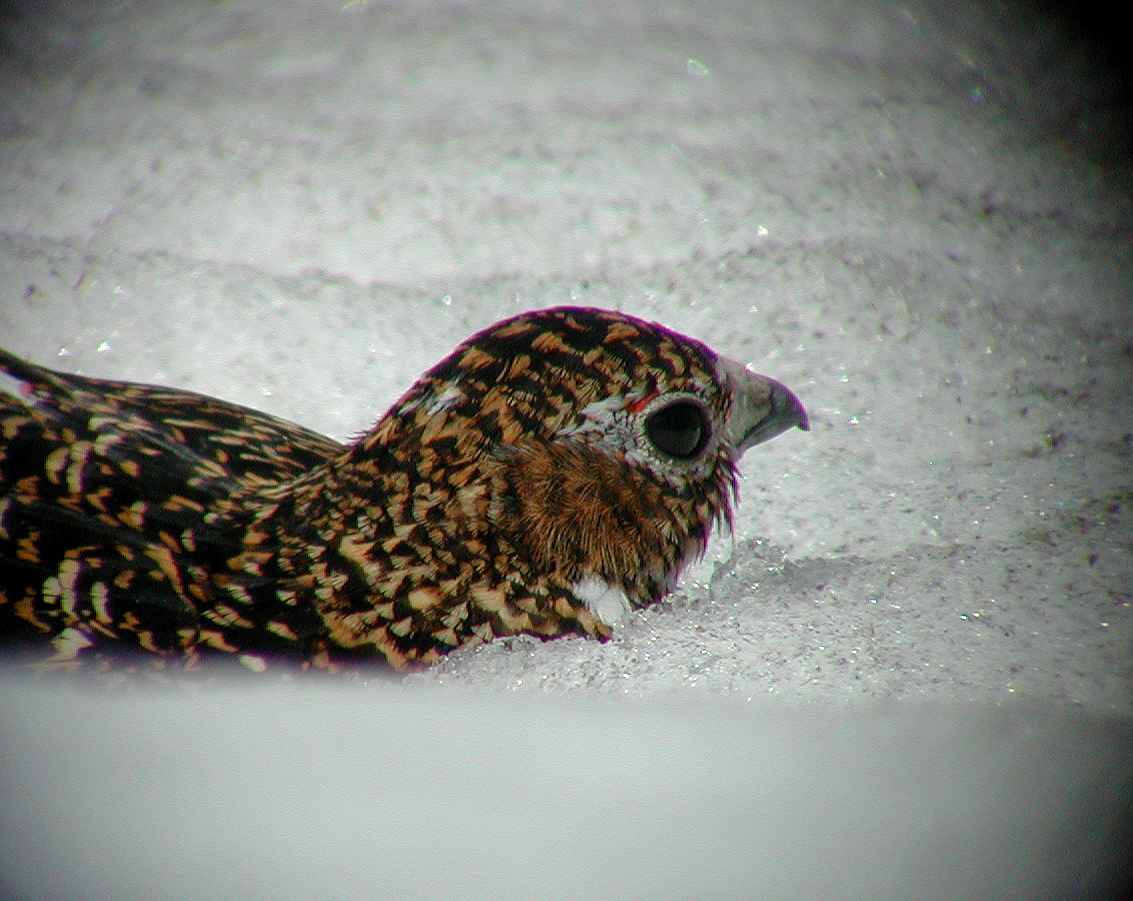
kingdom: Animalia
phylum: Chordata
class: Aves
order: Galliformes
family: Phasianidae
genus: Lagopus
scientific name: Lagopus muta
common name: Rock ptarmigan
